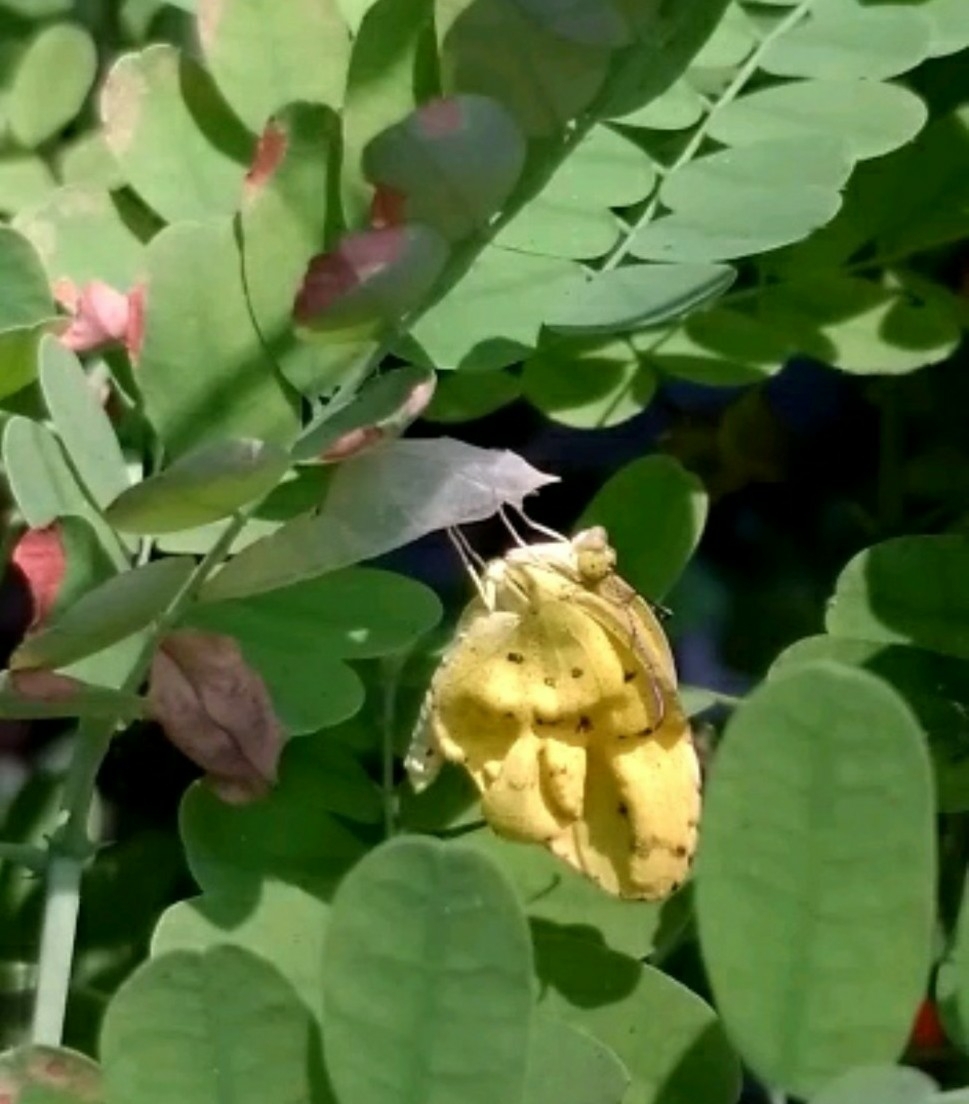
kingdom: Animalia
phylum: Arthropoda
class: Insecta
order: Lepidoptera
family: Pieridae
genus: Eurema
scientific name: Eurema hecabe
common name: Pale grass yellow
